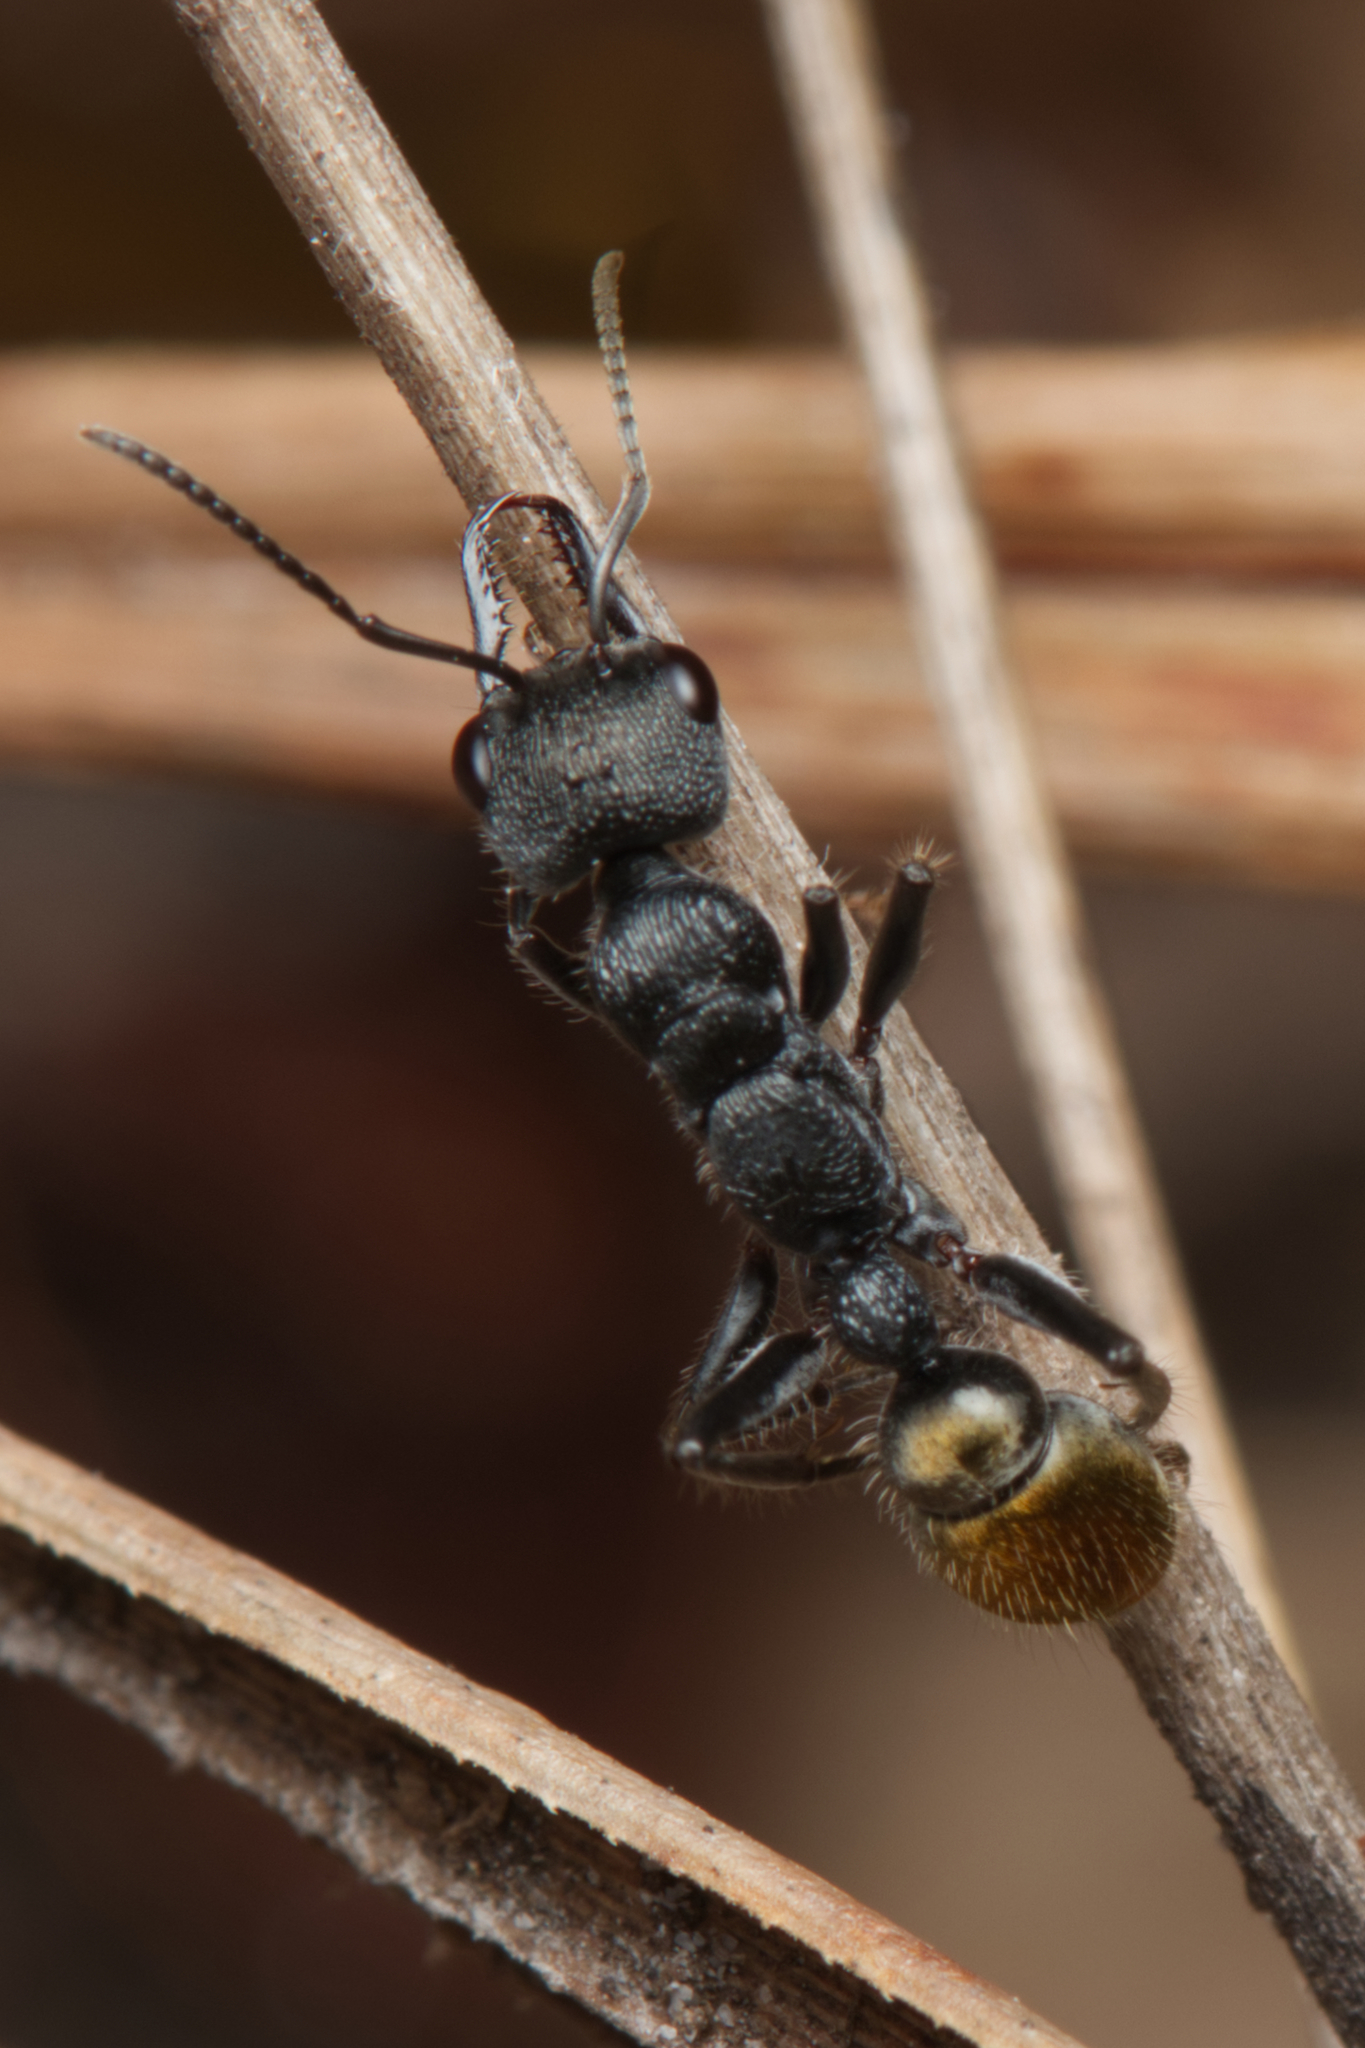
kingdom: Animalia
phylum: Arthropoda
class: Insecta
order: Hymenoptera
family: Formicidae
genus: Myrmecia
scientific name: Myrmecia queenslandica
